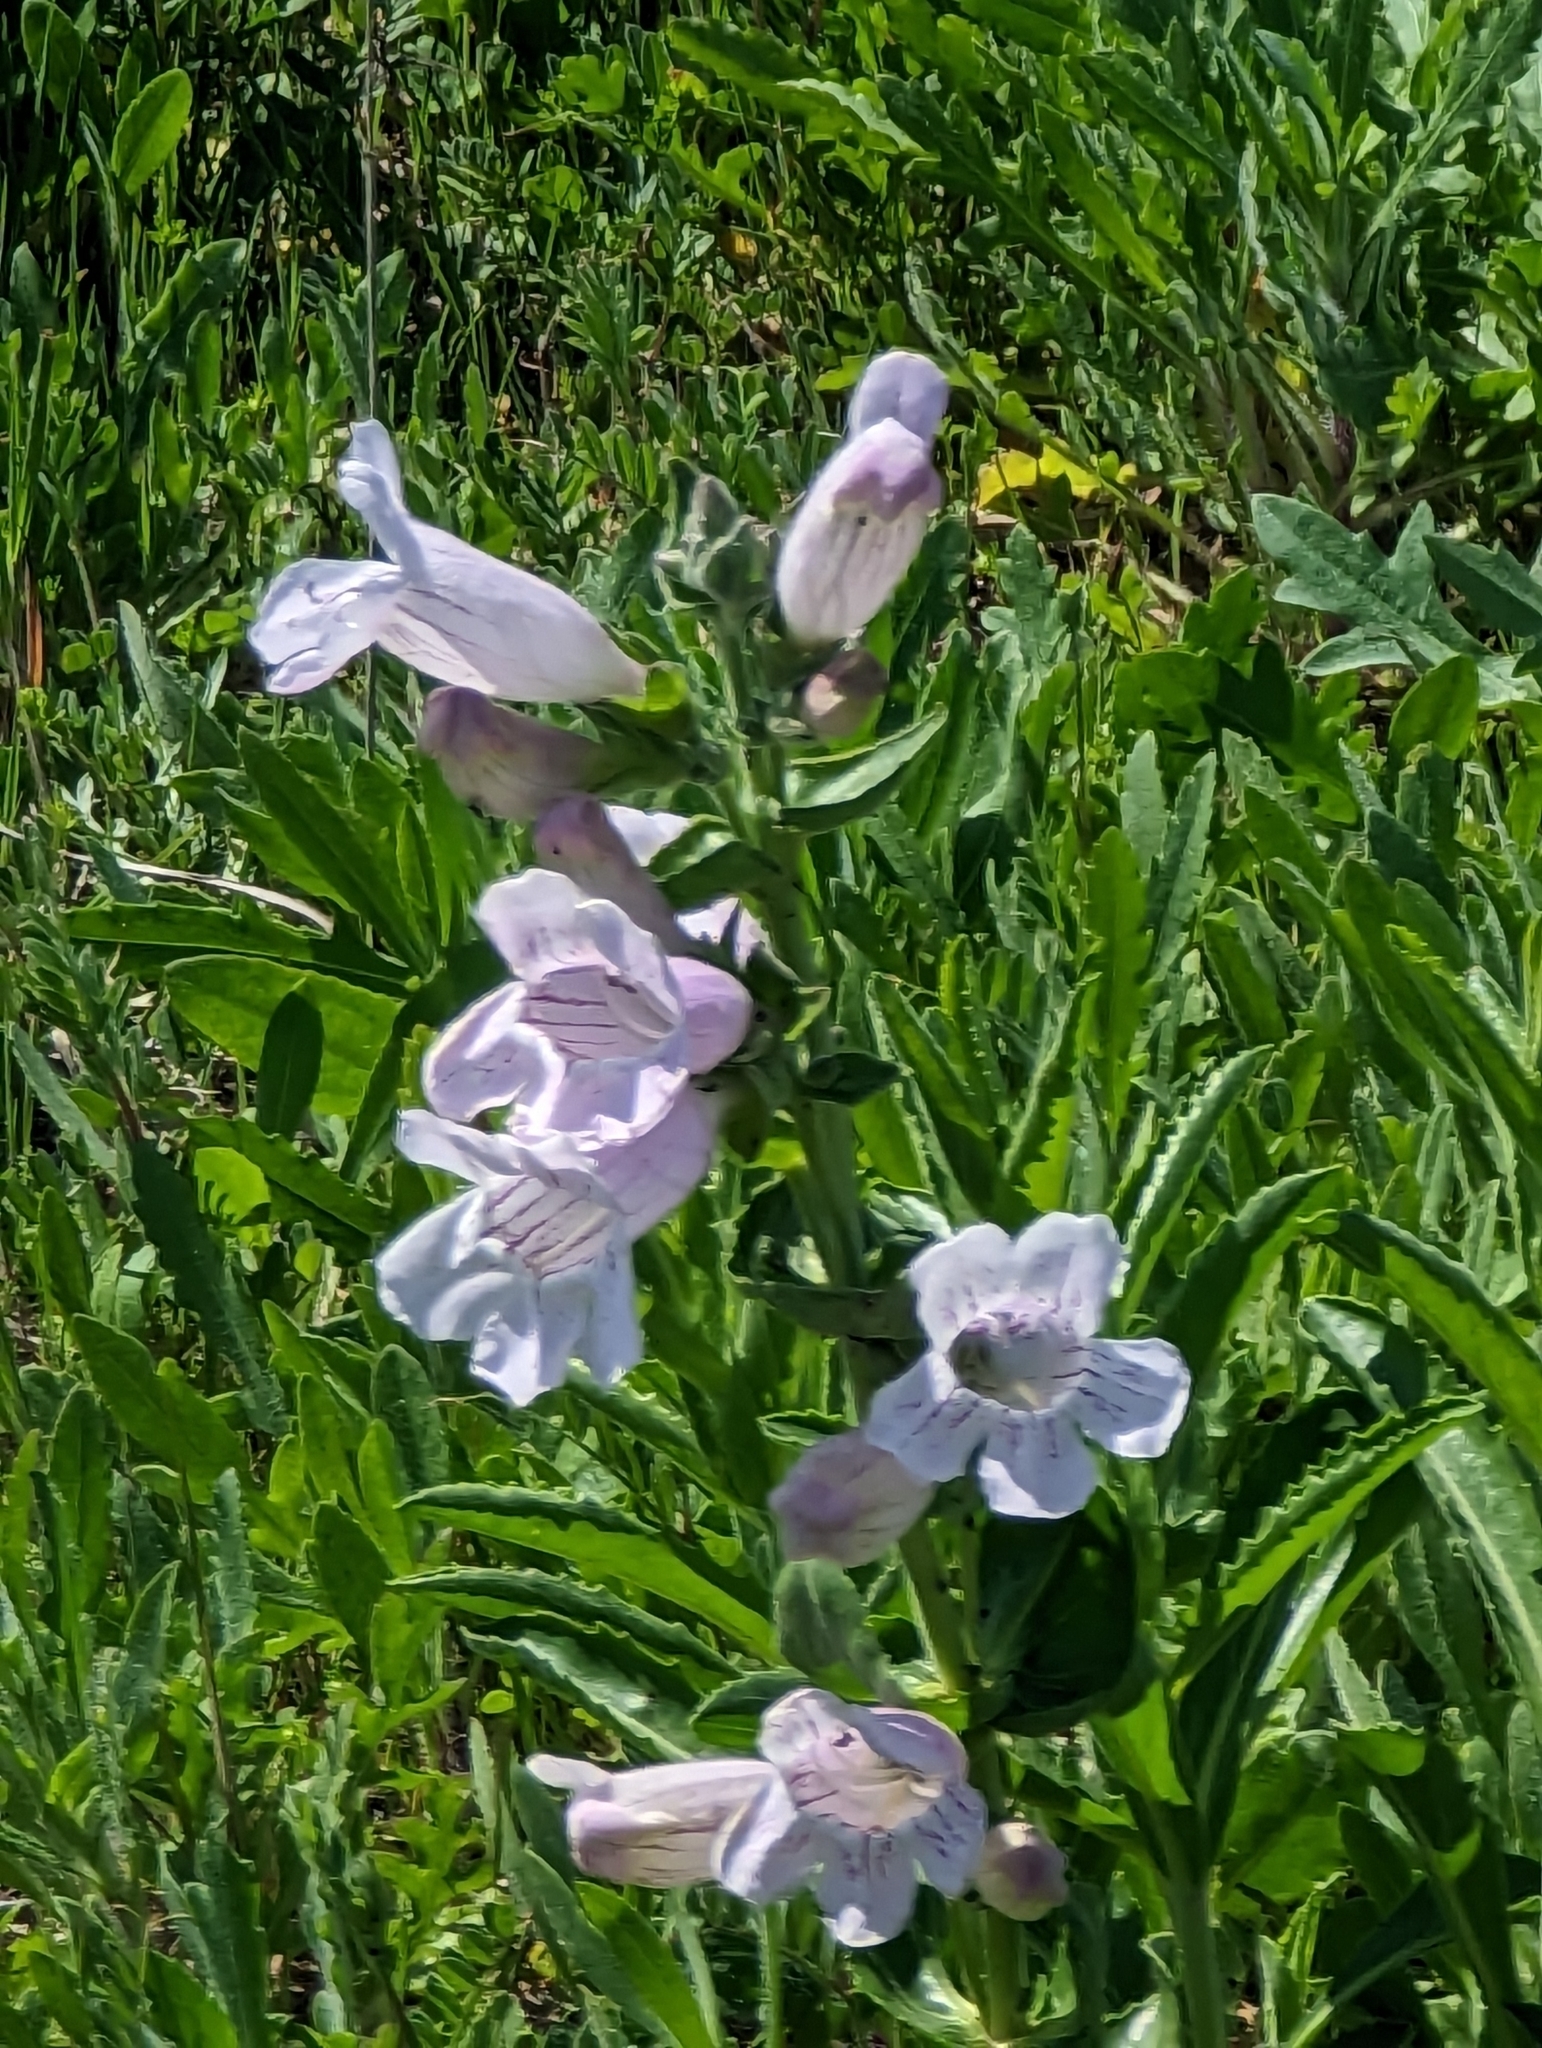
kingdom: Plantae
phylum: Tracheophyta
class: Magnoliopsida
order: Lamiales
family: Plantaginaceae
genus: Penstemon
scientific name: Penstemon cobaea
